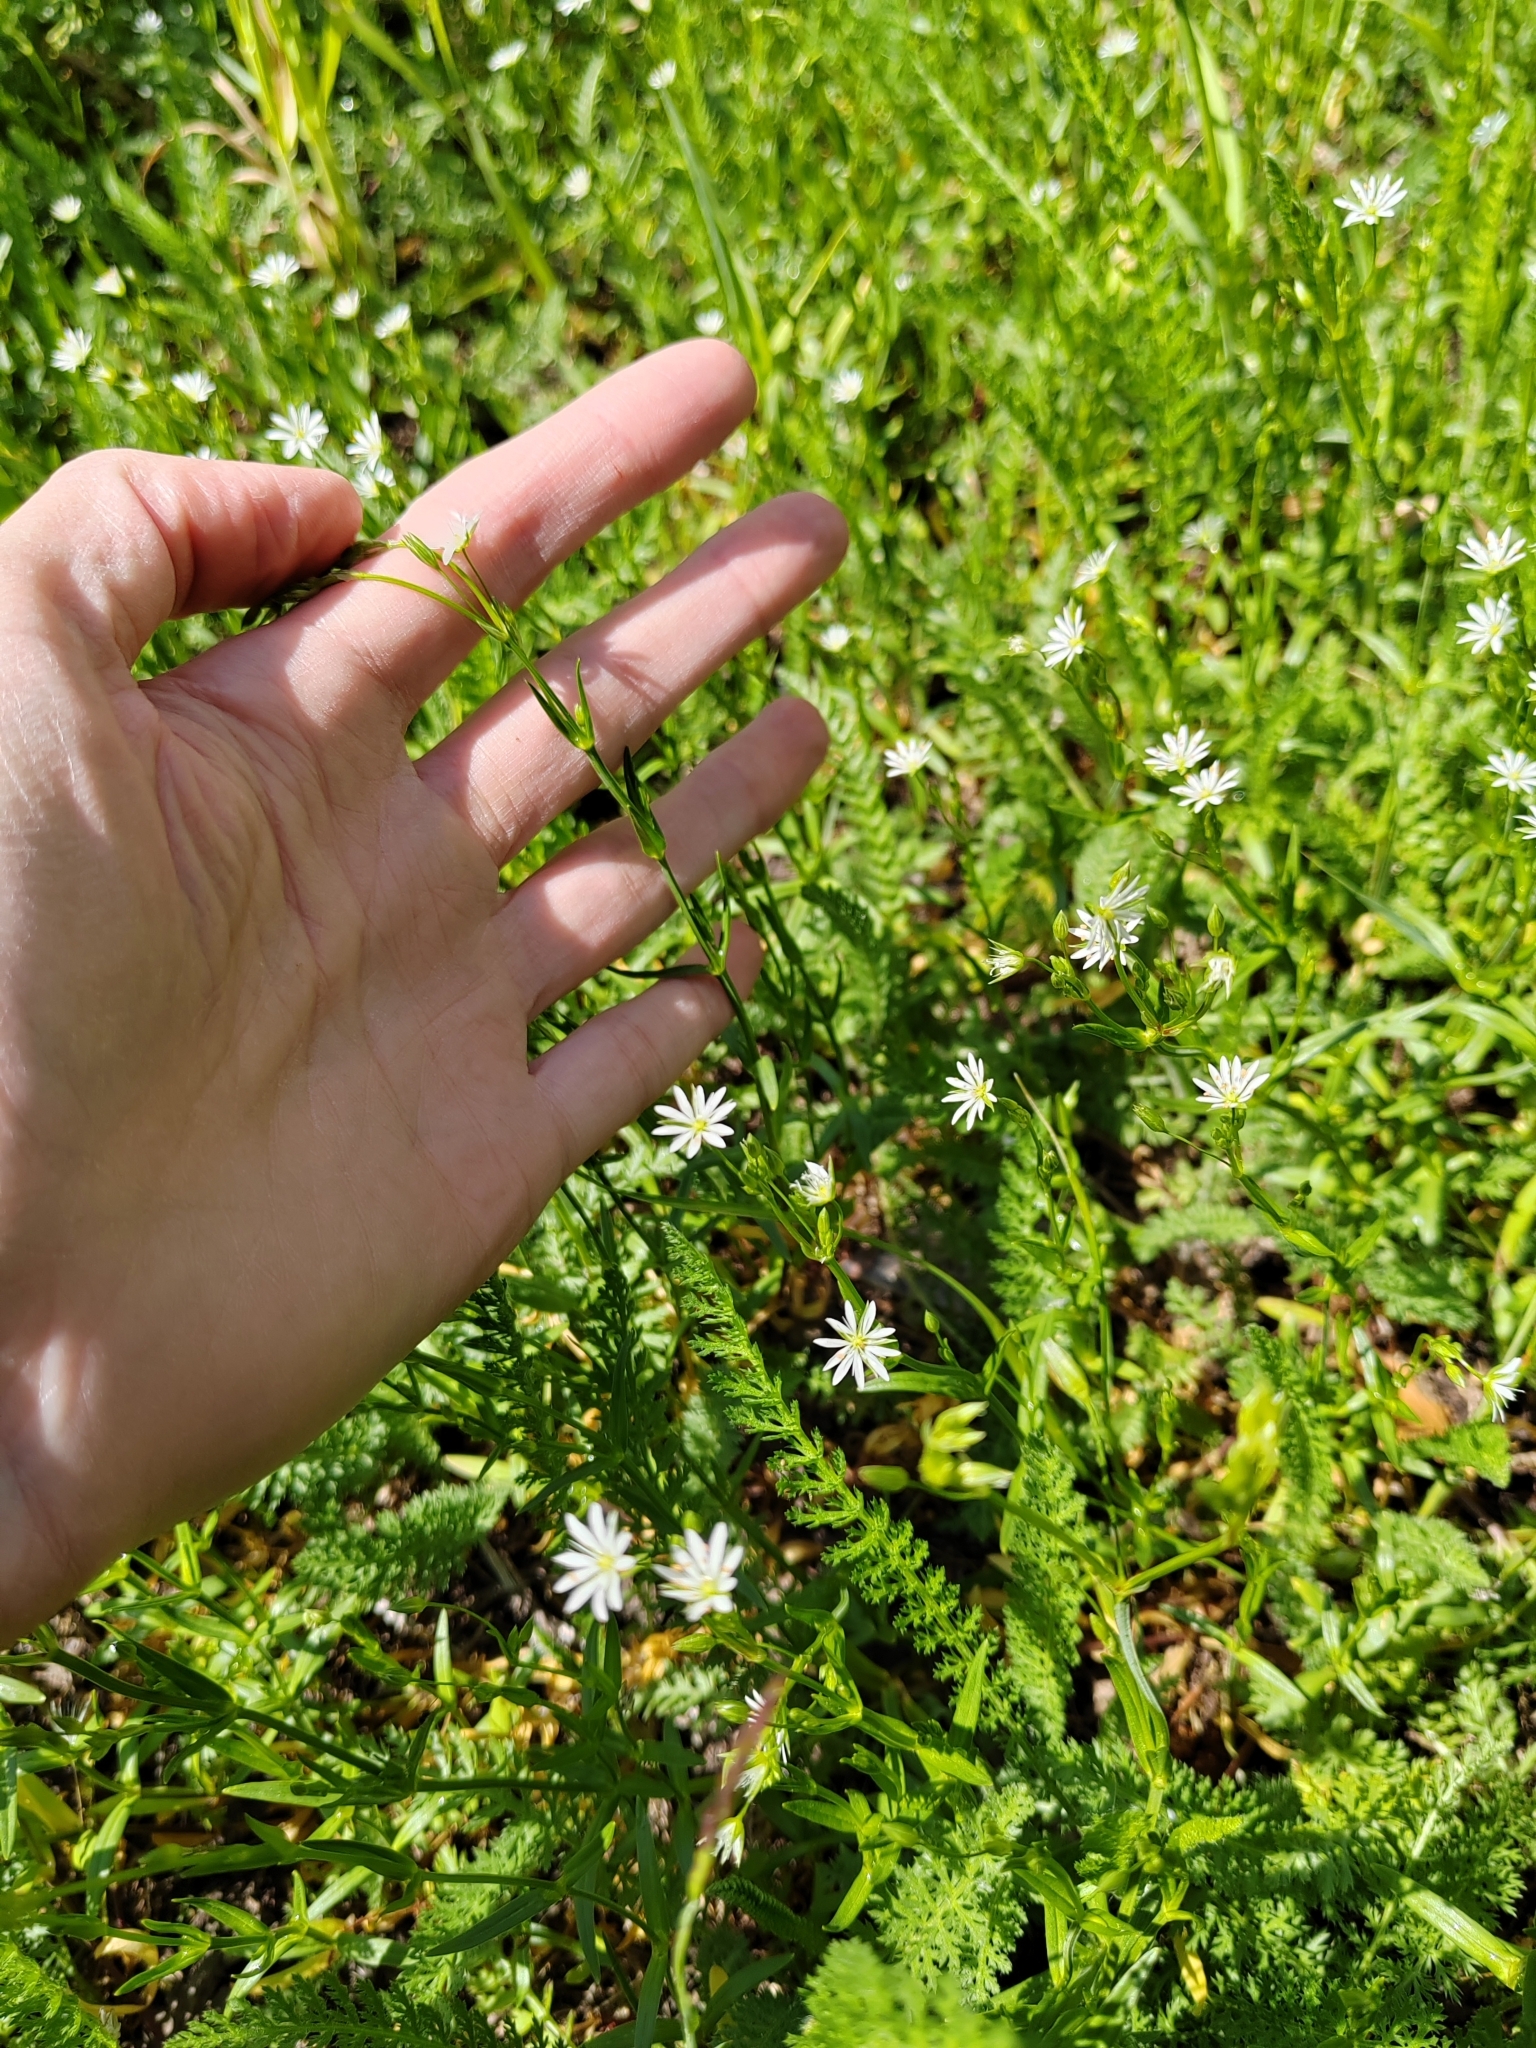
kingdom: Plantae
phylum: Tracheophyta
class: Magnoliopsida
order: Caryophyllales
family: Caryophyllaceae
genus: Stellaria
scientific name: Stellaria graminea
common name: Grass-like starwort
